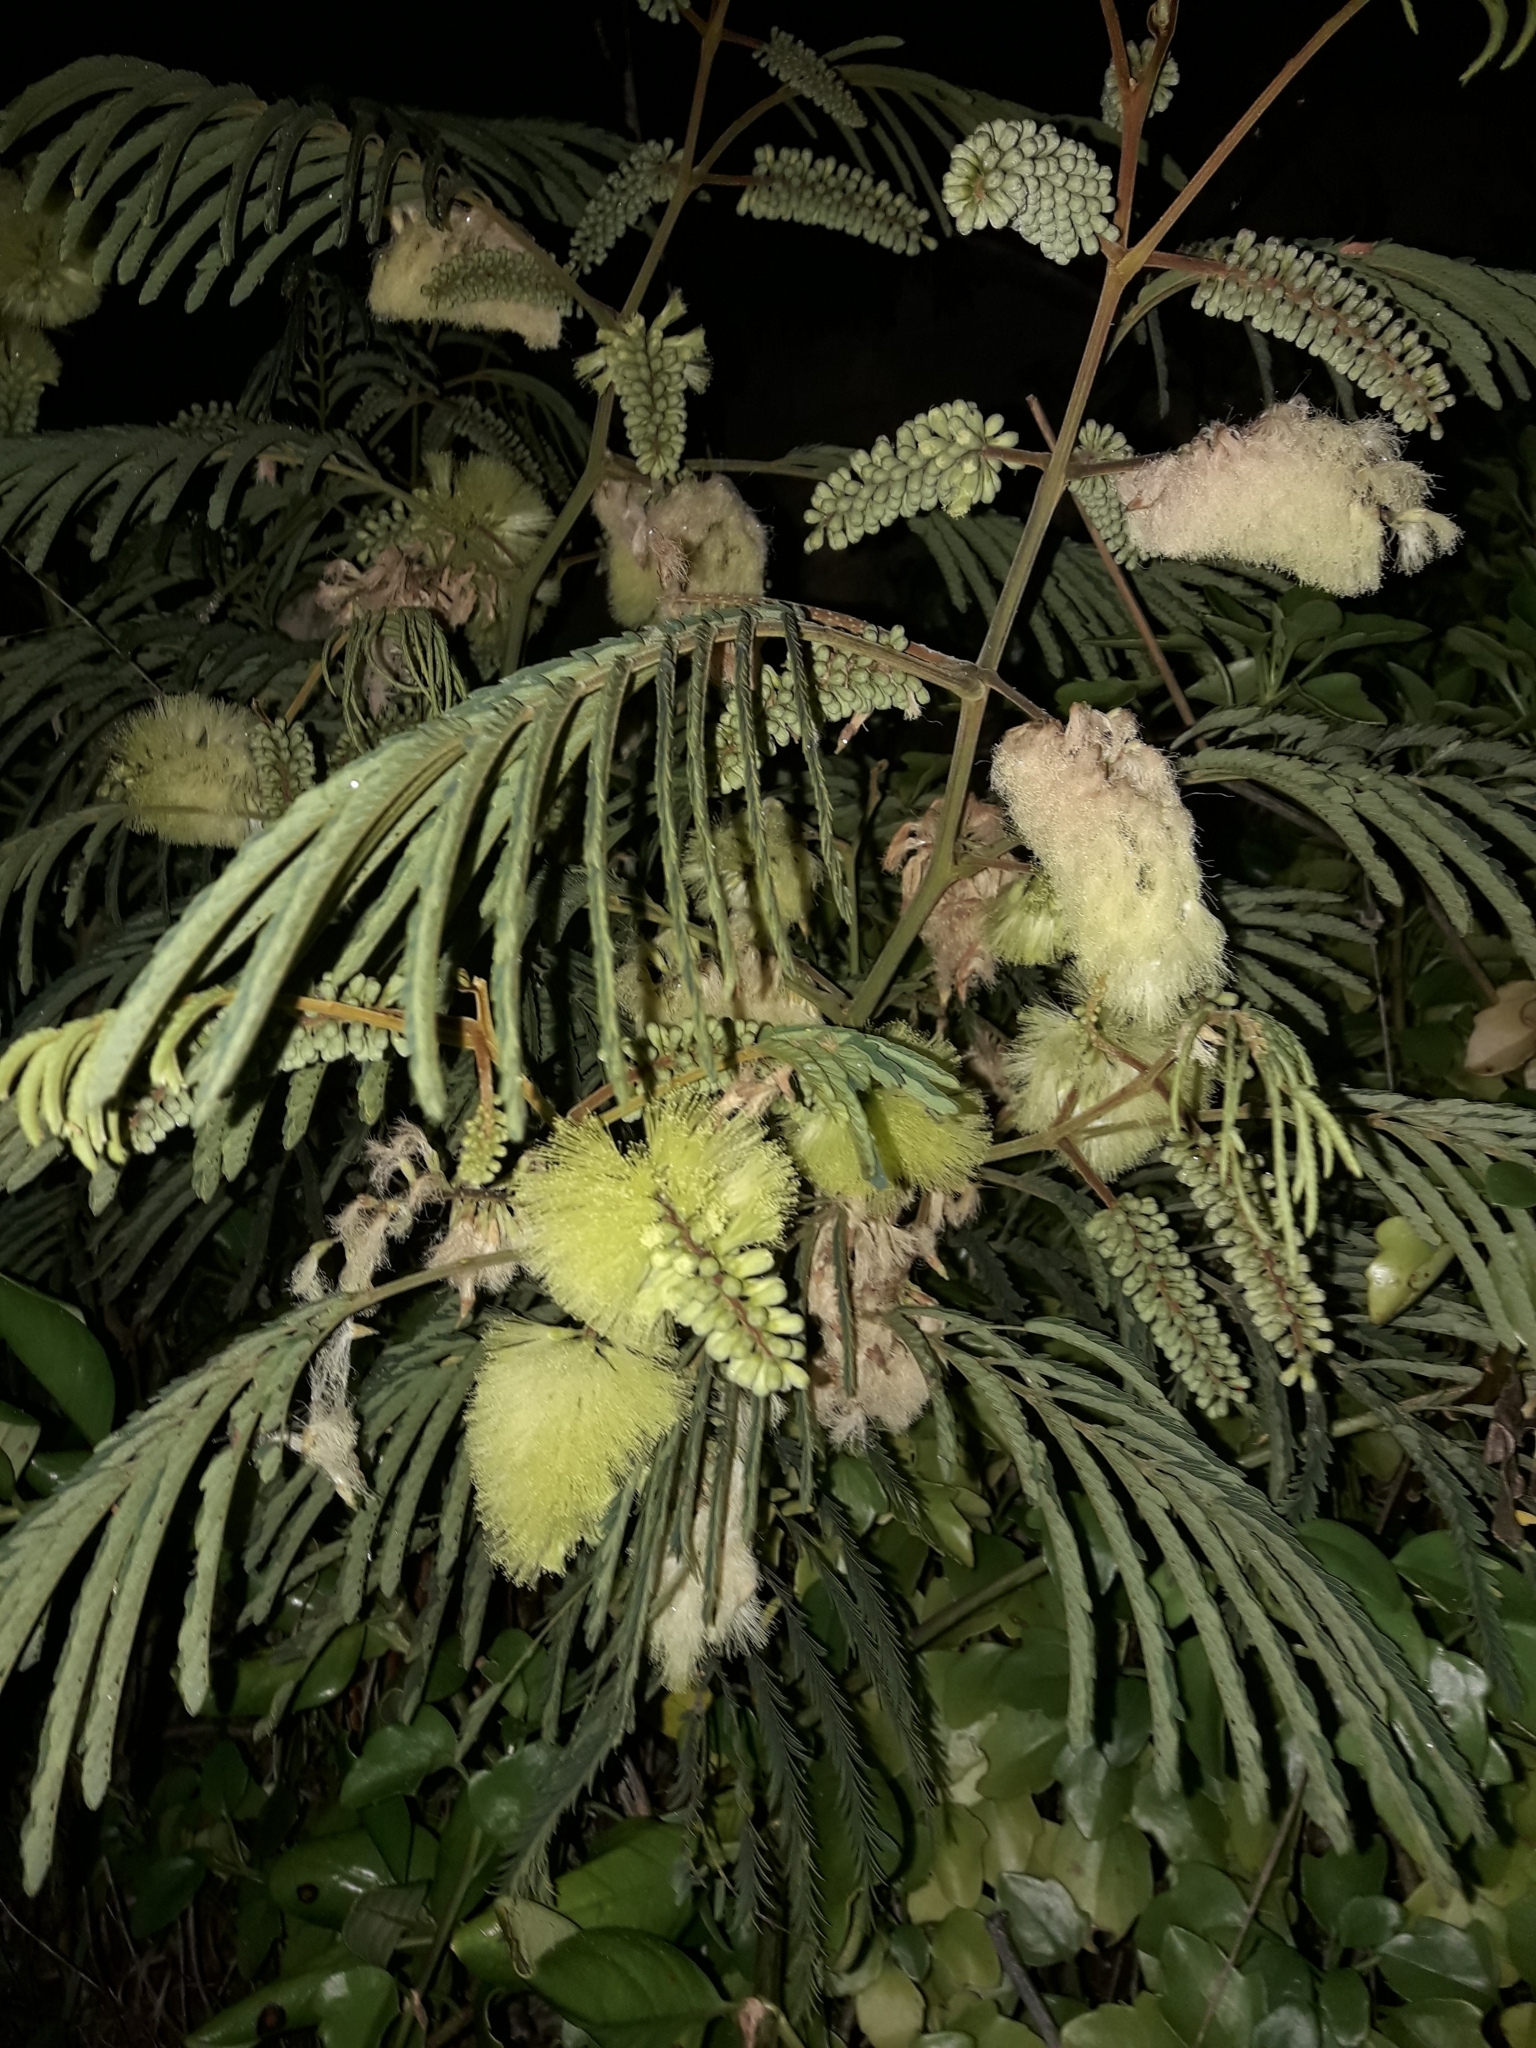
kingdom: Plantae
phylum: Tracheophyta
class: Magnoliopsida
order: Fabales
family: Fabaceae
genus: Paraserianthes
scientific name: Paraserianthes lophantha
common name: Plume albizia
